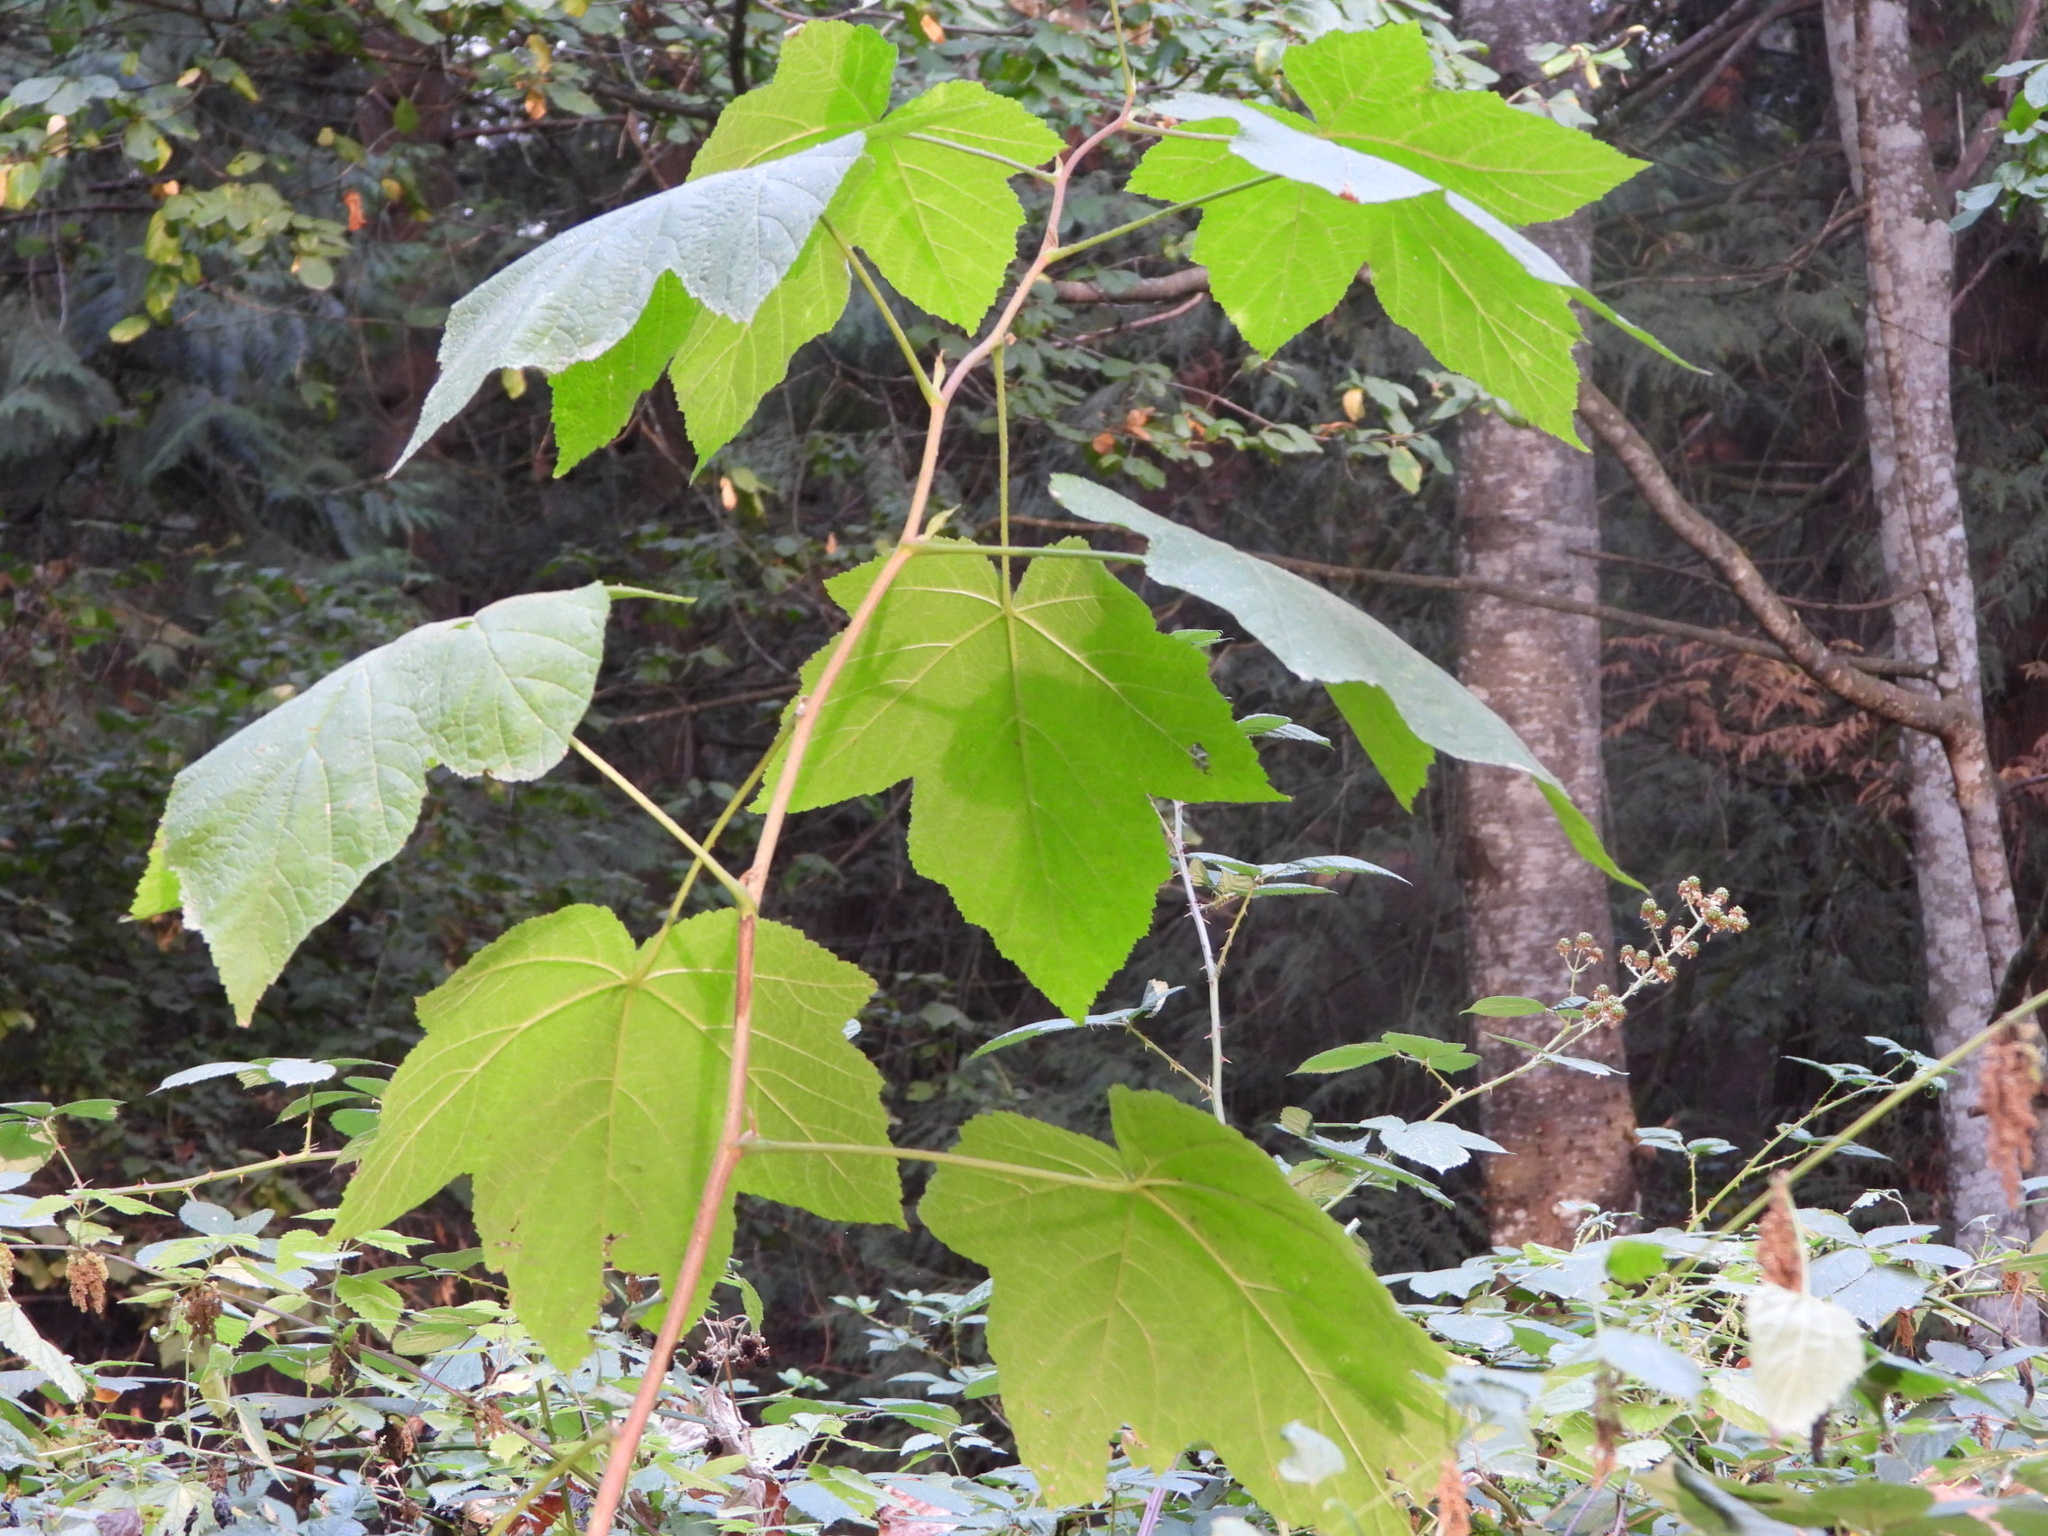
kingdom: Plantae
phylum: Tracheophyta
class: Magnoliopsida
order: Rosales
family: Rosaceae
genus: Rubus
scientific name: Rubus parviflorus
